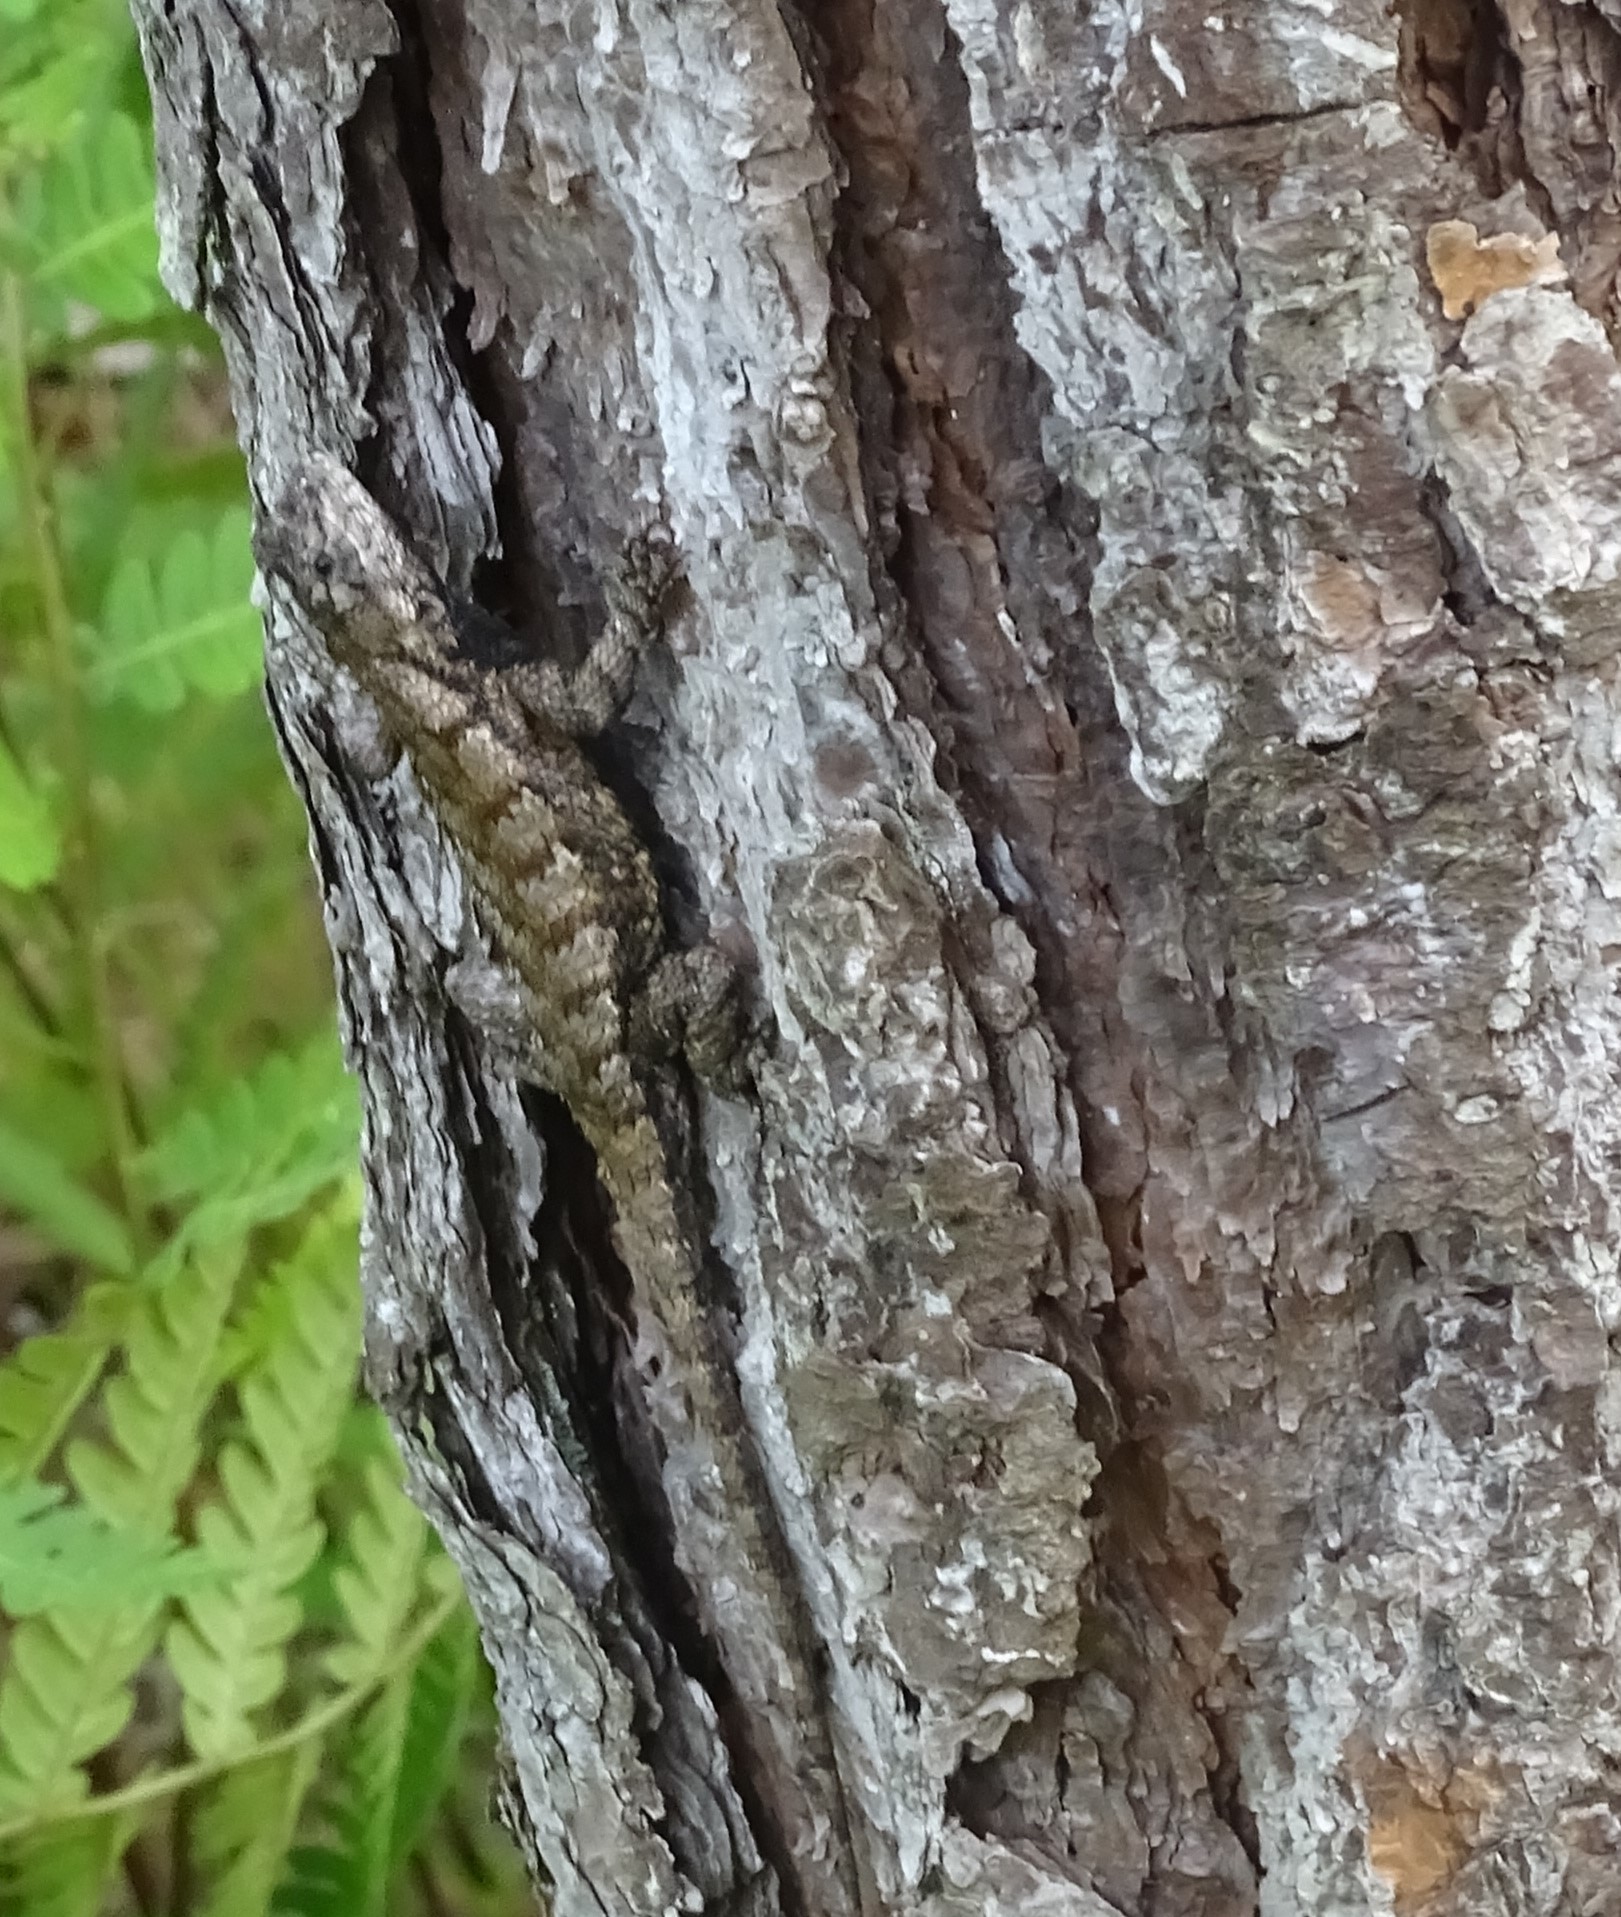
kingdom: Animalia
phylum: Chordata
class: Squamata
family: Phrynosomatidae
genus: Sceloporus
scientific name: Sceloporus undulatus
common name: Eastern fence lizard
